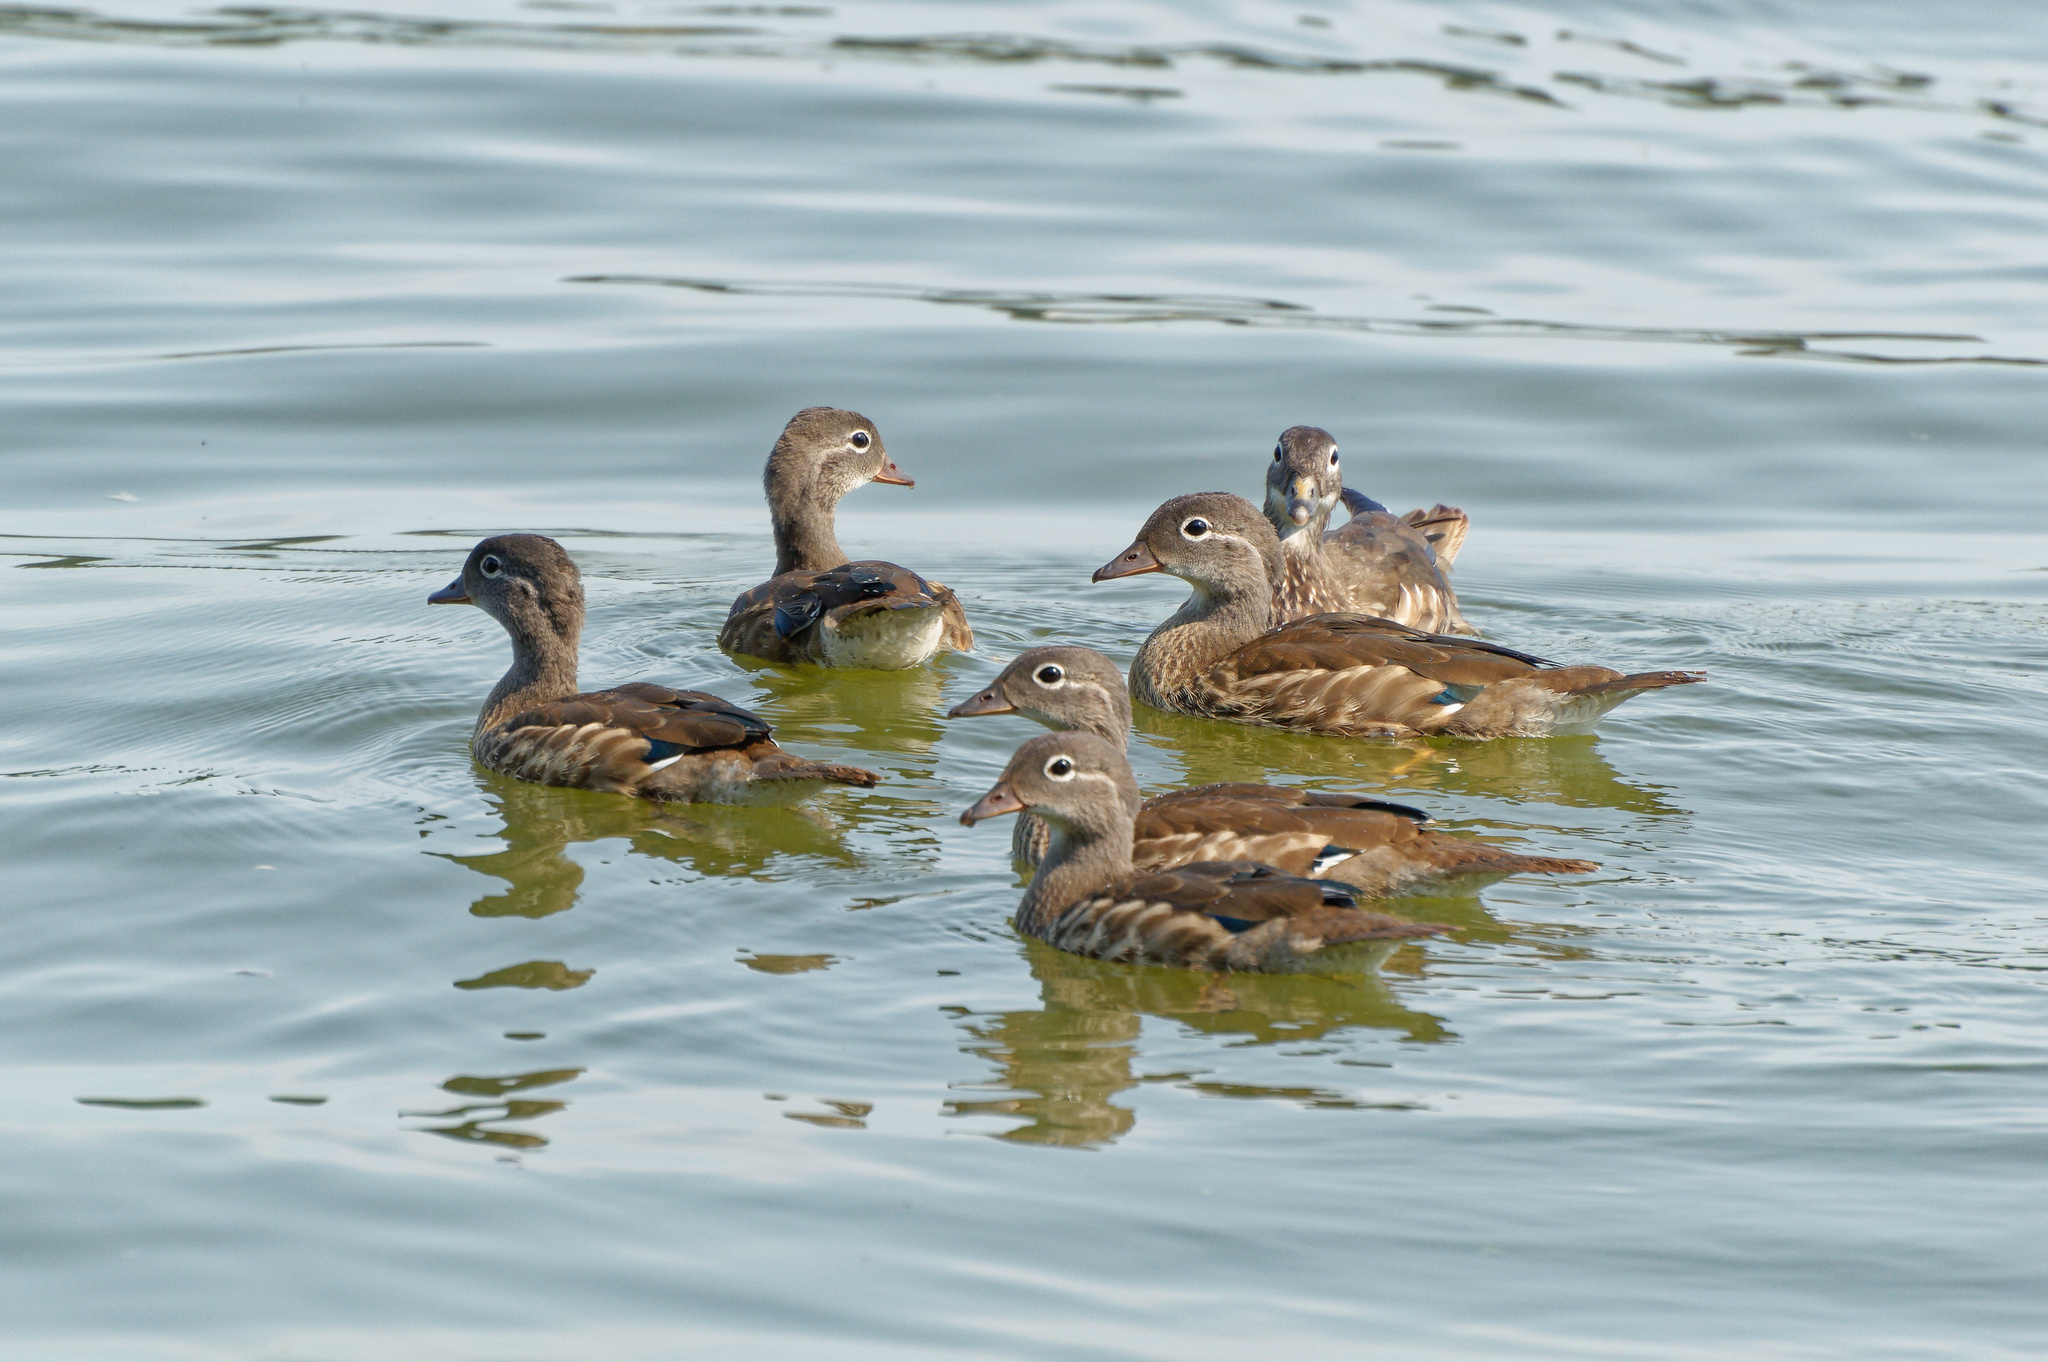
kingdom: Animalia
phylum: Chordata
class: Aves
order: Anseriformes
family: Anatidae
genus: Aix
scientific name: Aix galericulata
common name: Mandarin duck
